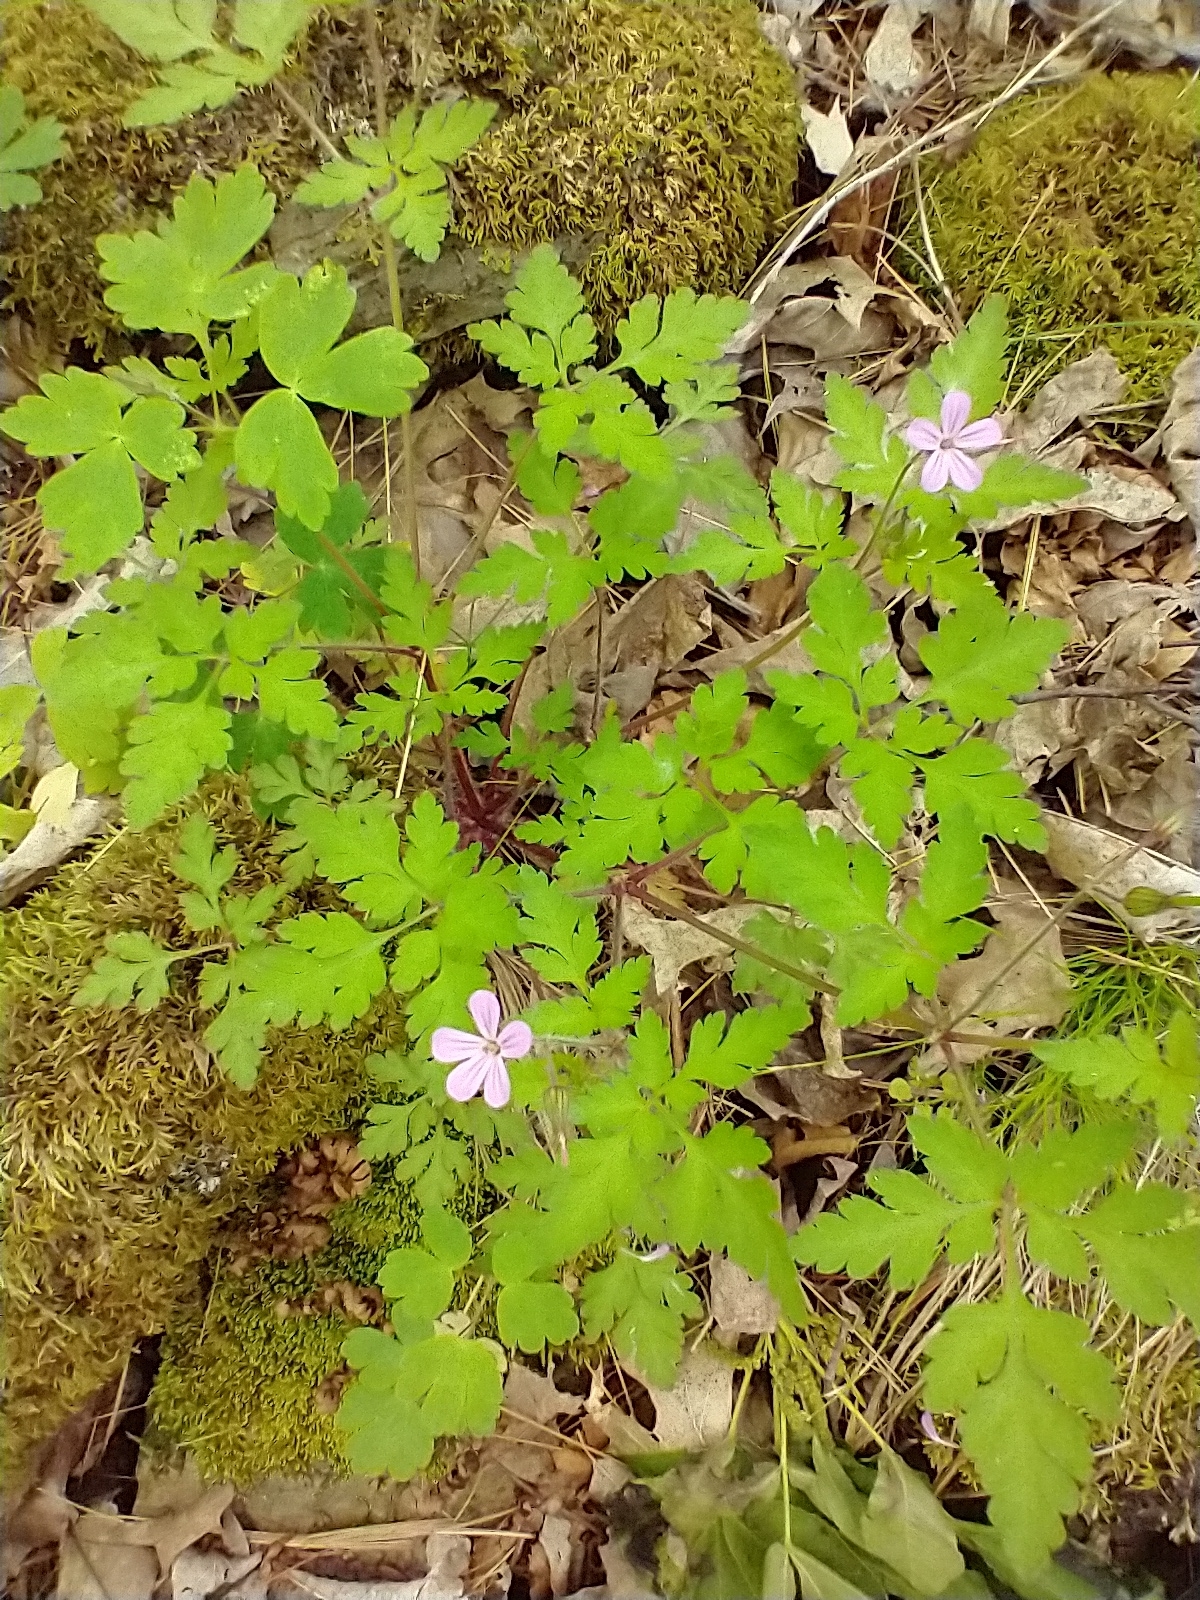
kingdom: Plantae
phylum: Tracheophyta
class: Magnoliopsida
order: Geraniales
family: Geraniaceae
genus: Geranium
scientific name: Geranium robertianum
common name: Herb-robert
